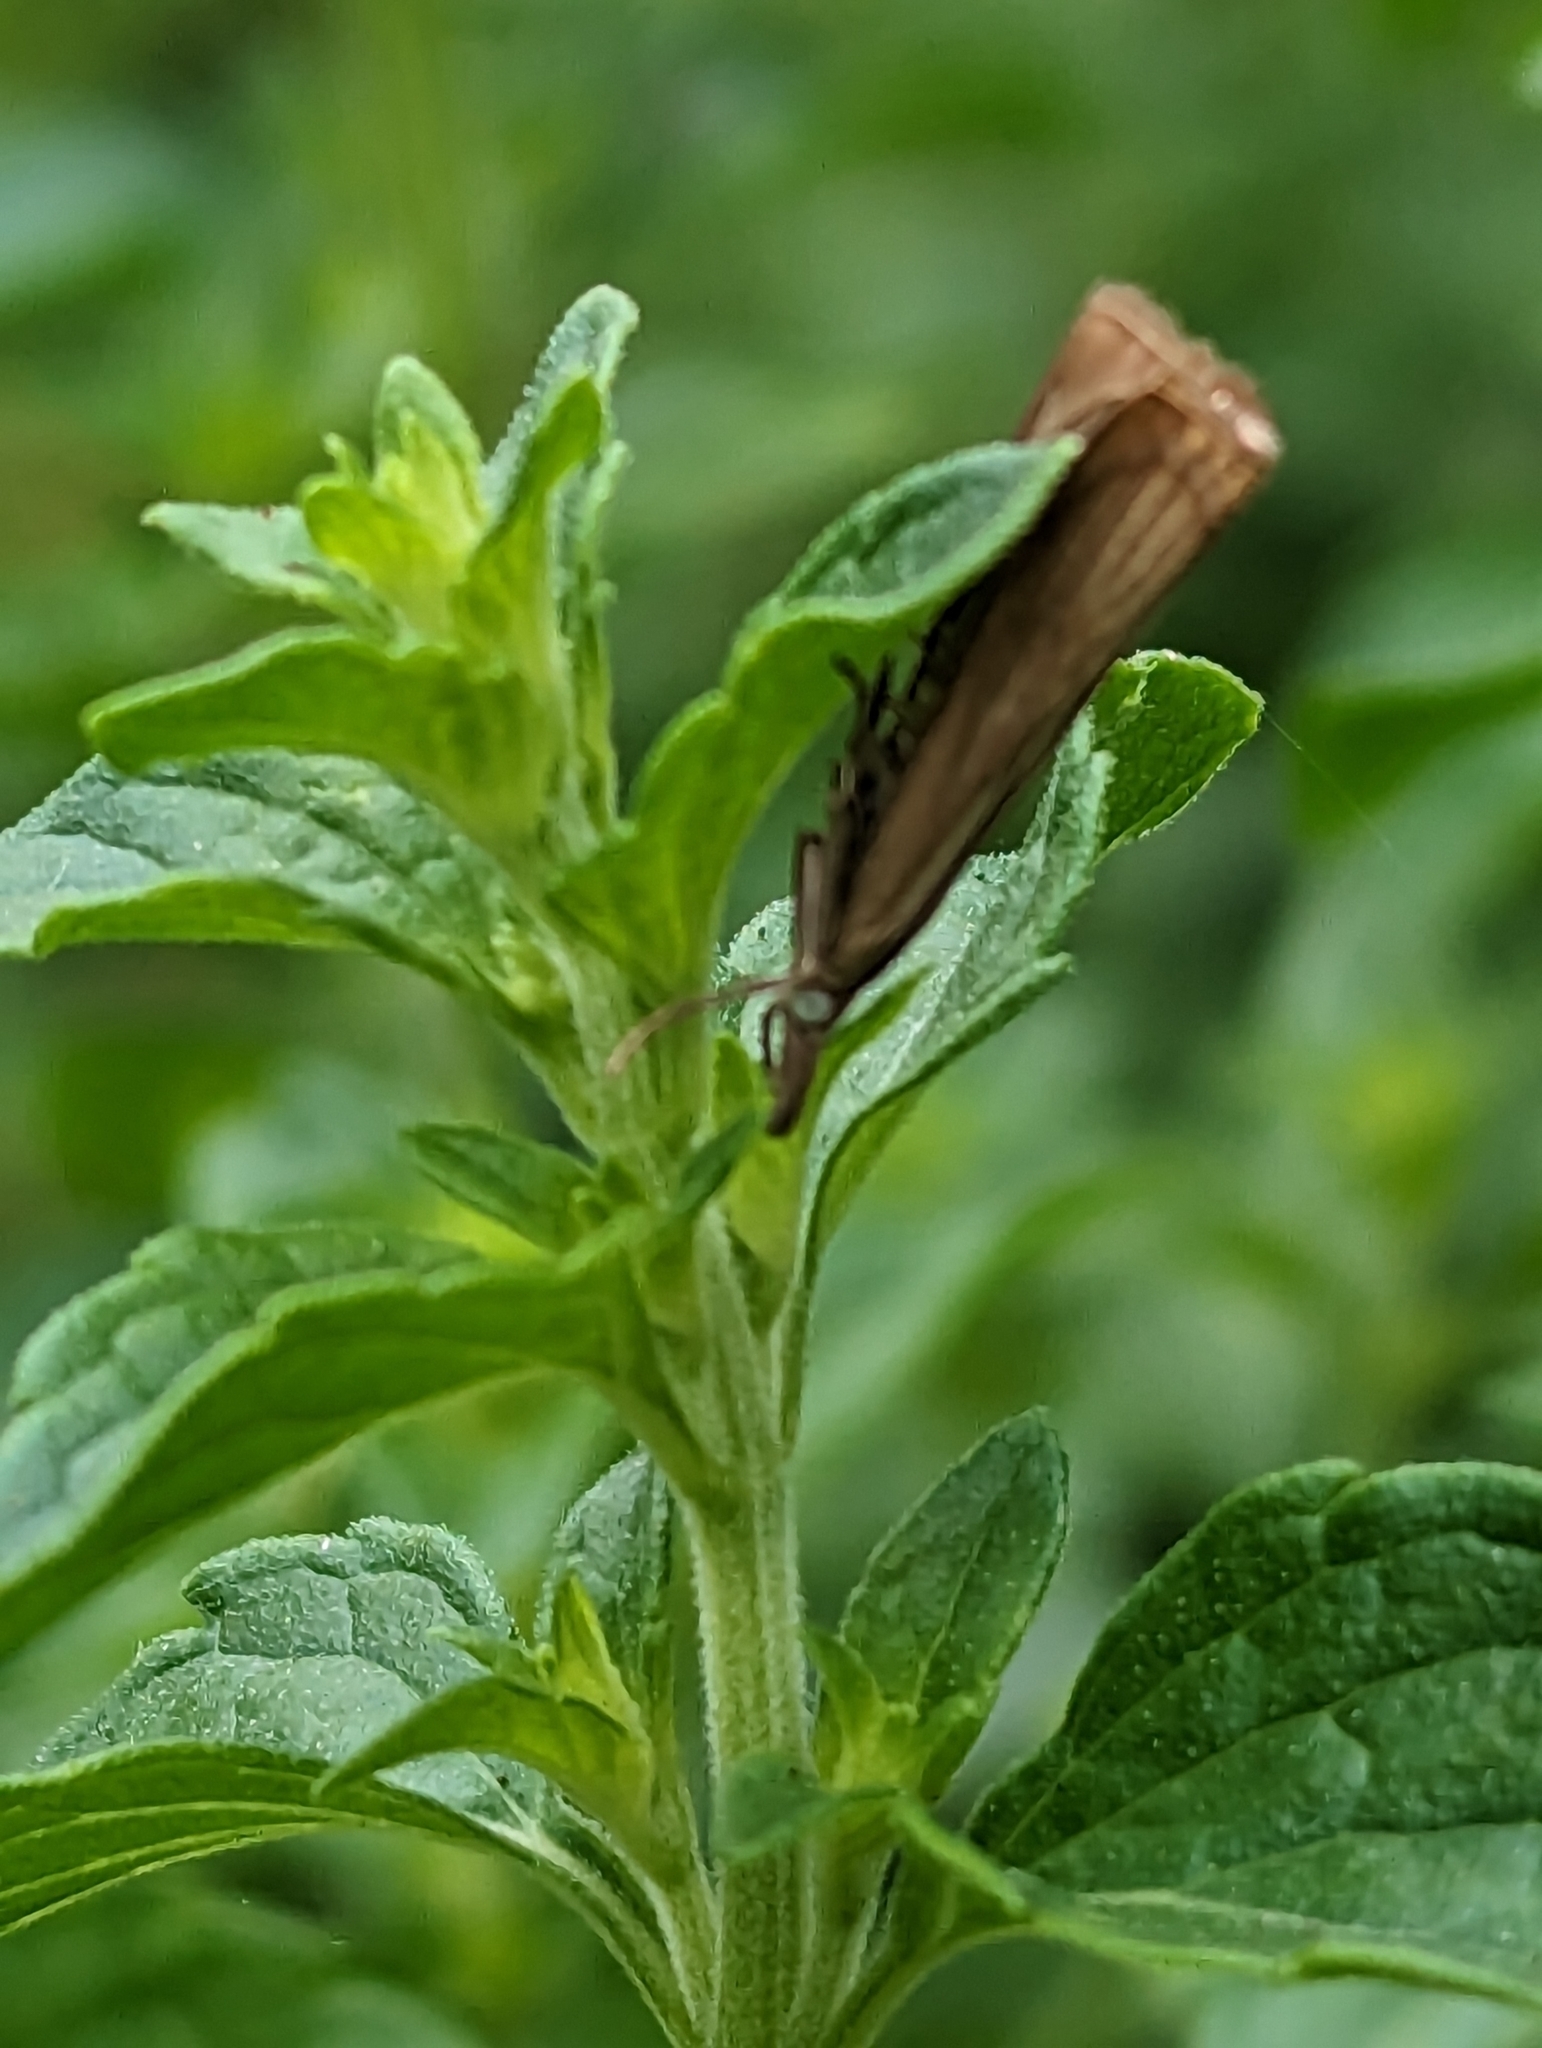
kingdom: Animalia
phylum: Arthropoda
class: Insecta
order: Lepidoptera
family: Crambidae
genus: Chrysoteuchia
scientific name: Chrysoteuchia culmella
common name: Garden grass-veneer
